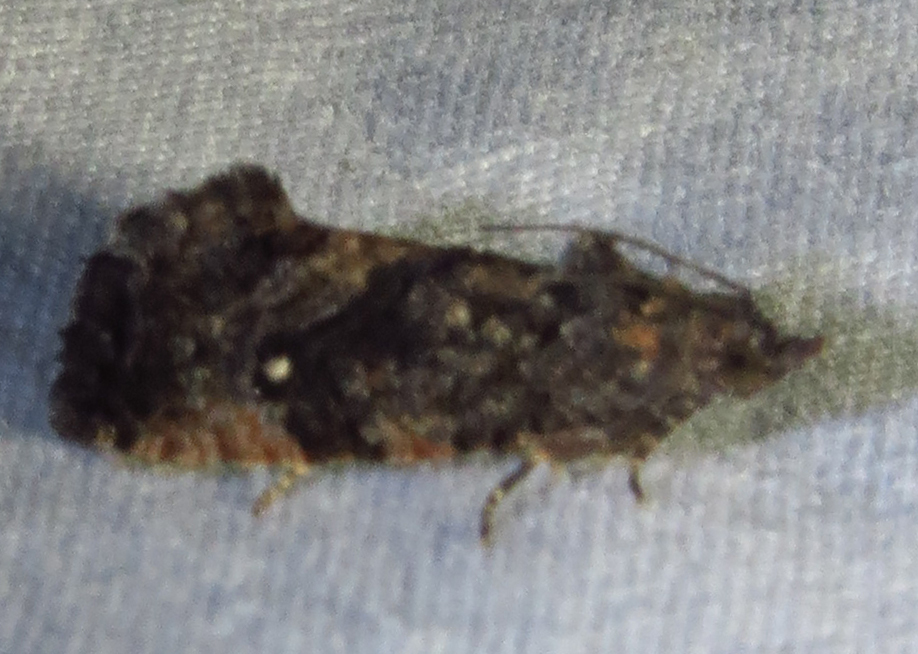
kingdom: Animalia
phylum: Arthropoda
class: Insecta
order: Lepidoptera
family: Tortricidae
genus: Gymnandrosoma
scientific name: Gymnandrosoma punctidiscanum
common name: Dotted ecdytolopha moth
